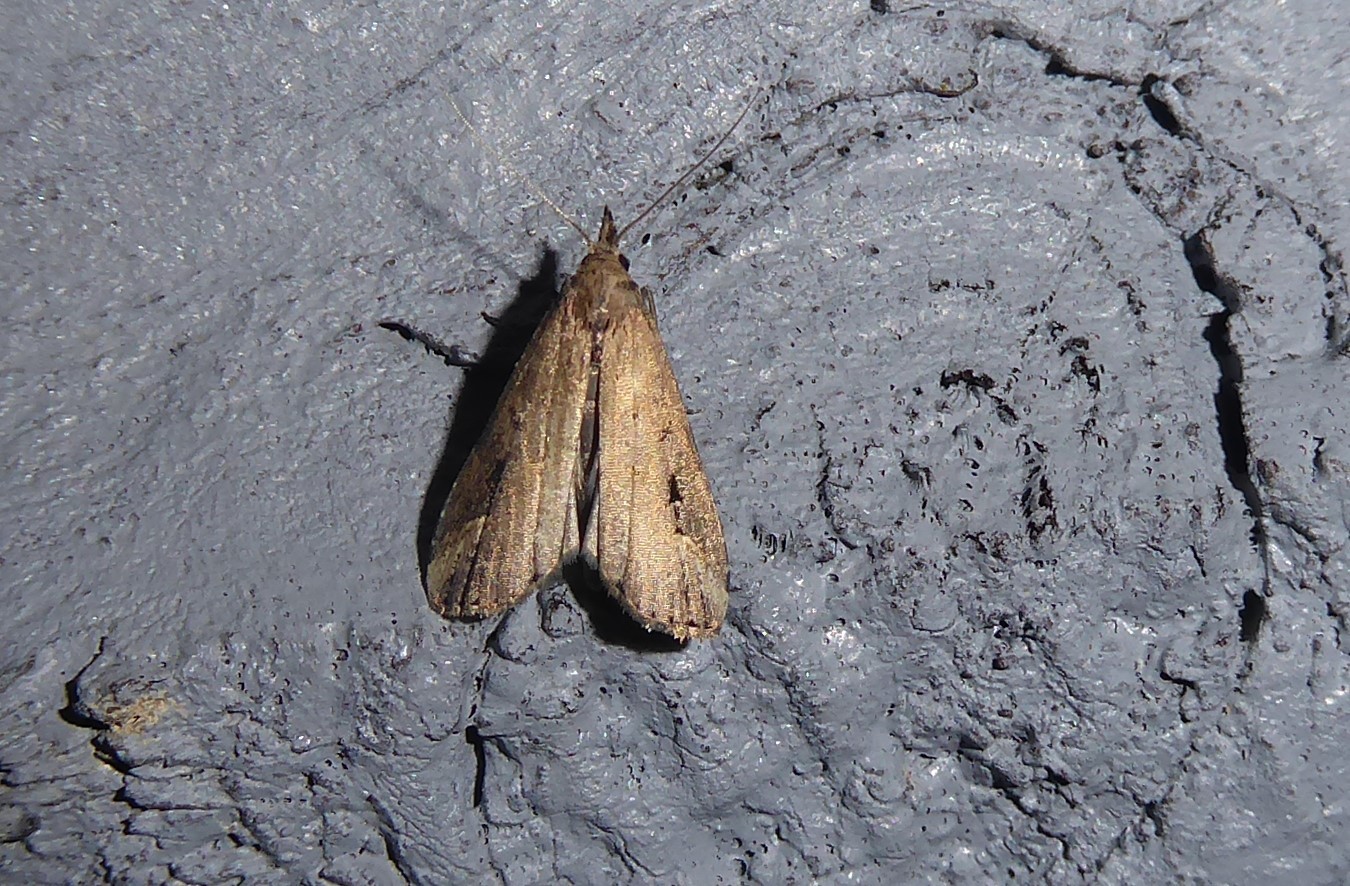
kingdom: Animalia
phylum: Arthropoda
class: Insecta
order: Lepidoptera
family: Erebidae
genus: Schrankia
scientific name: Schrankia costaestrigalis
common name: Pinion-streaked snout
